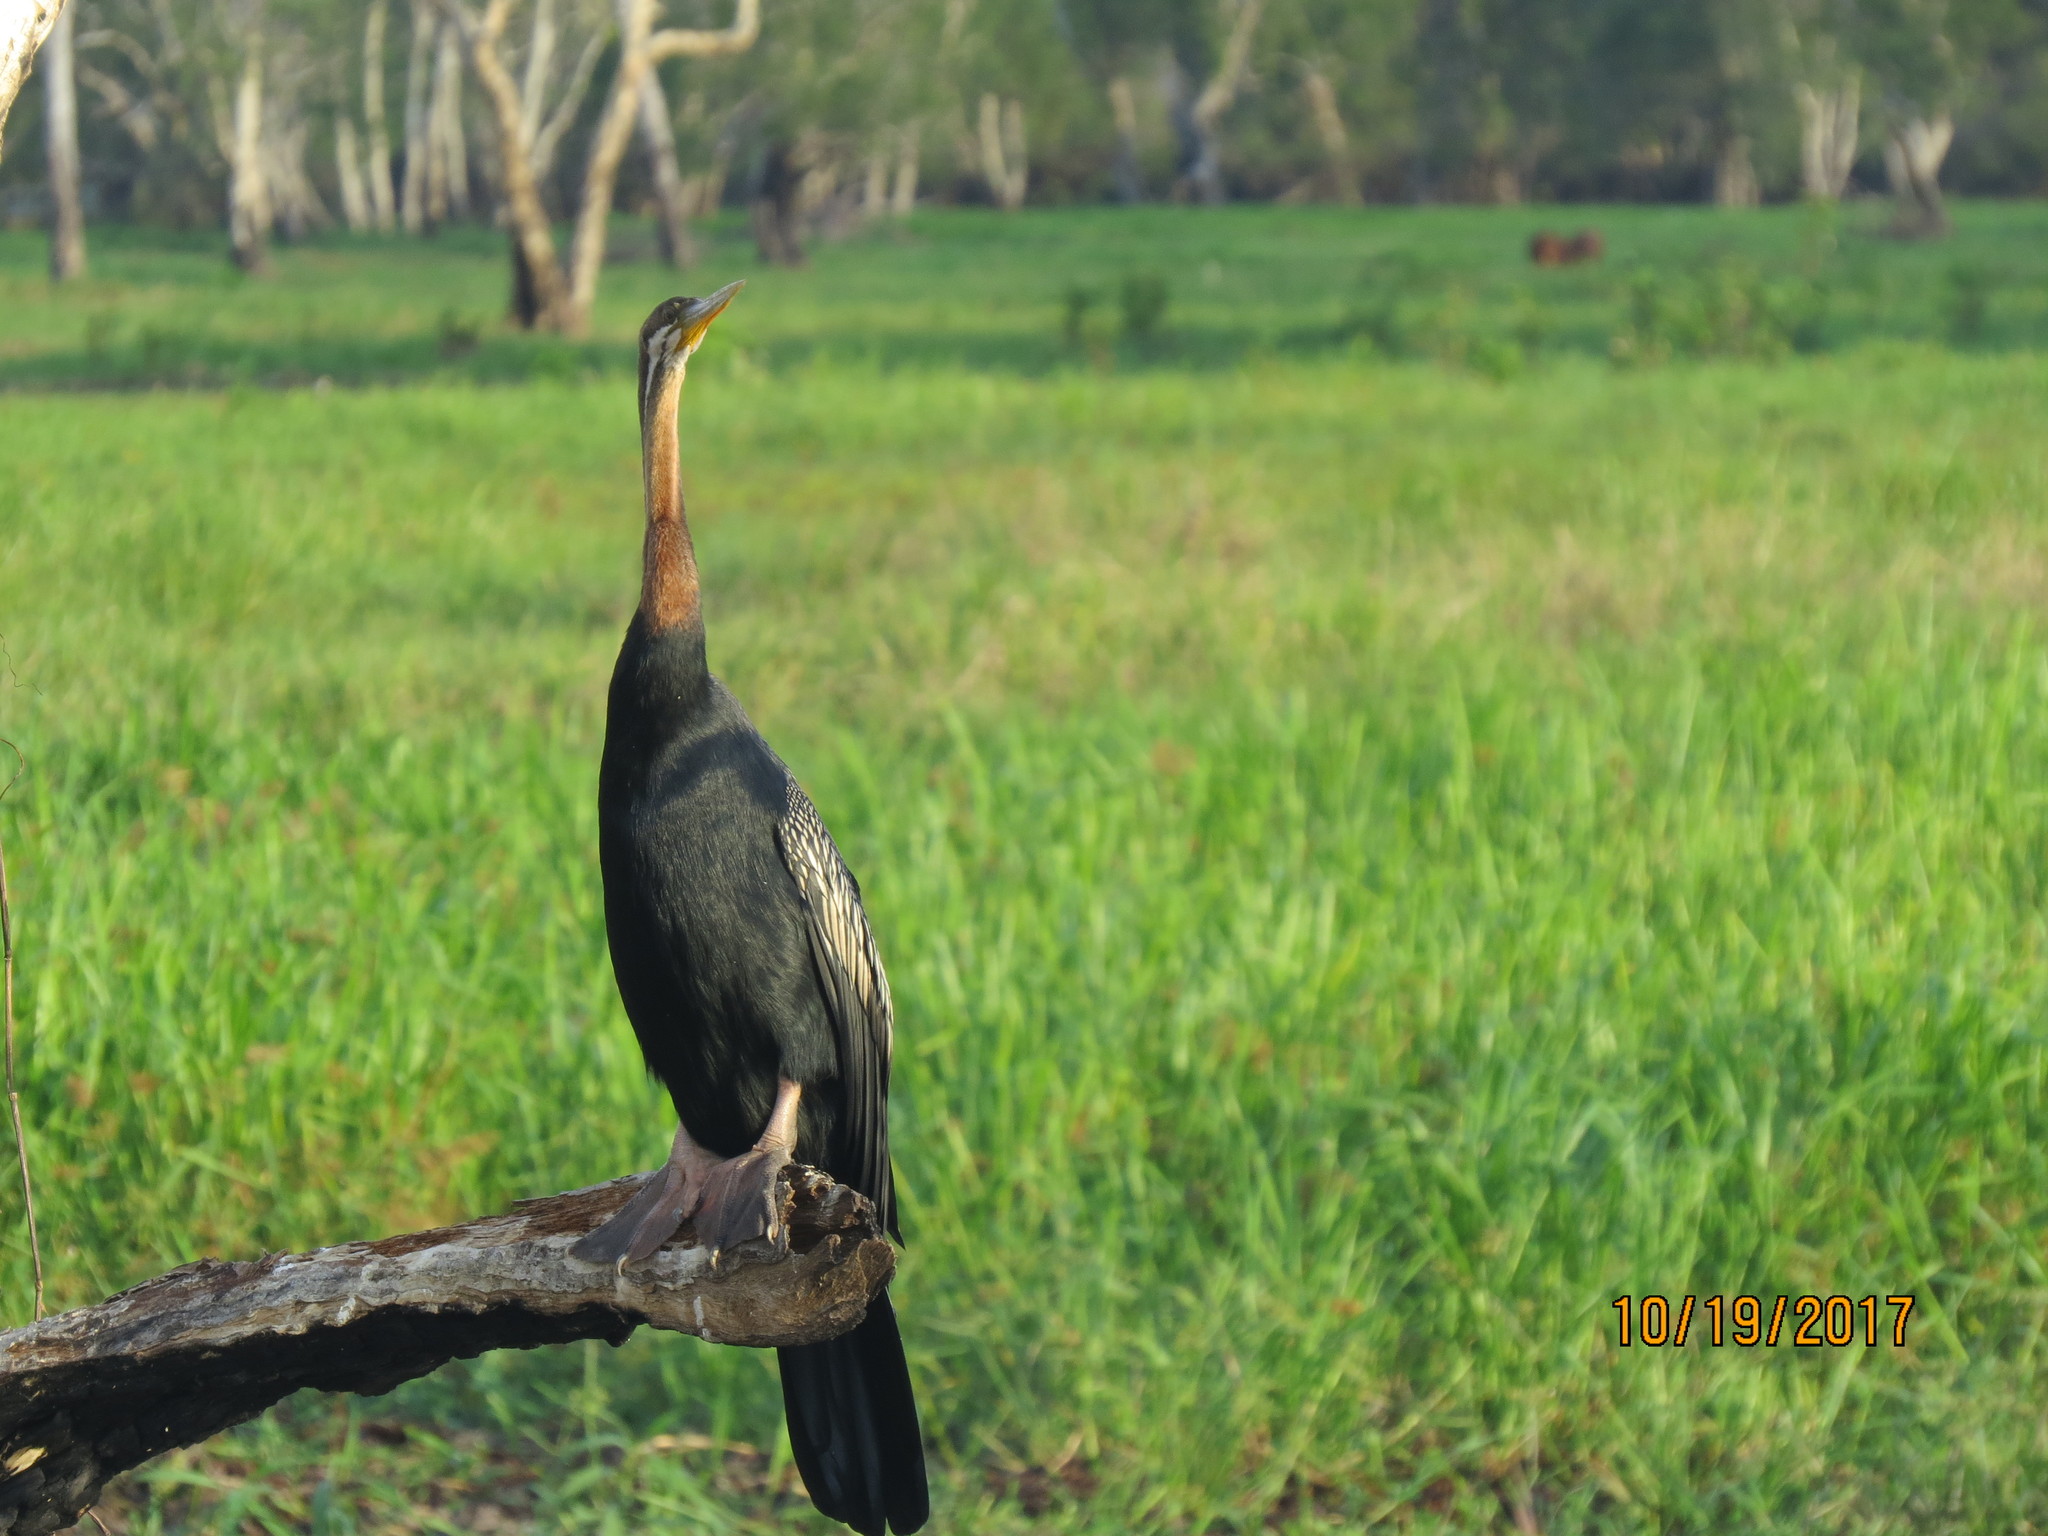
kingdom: Animalia
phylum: Chordata
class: Aves
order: Suliformes
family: Anhingidae
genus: Anhinga
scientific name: Anhinga novaehollandiae
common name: Australasian darter
